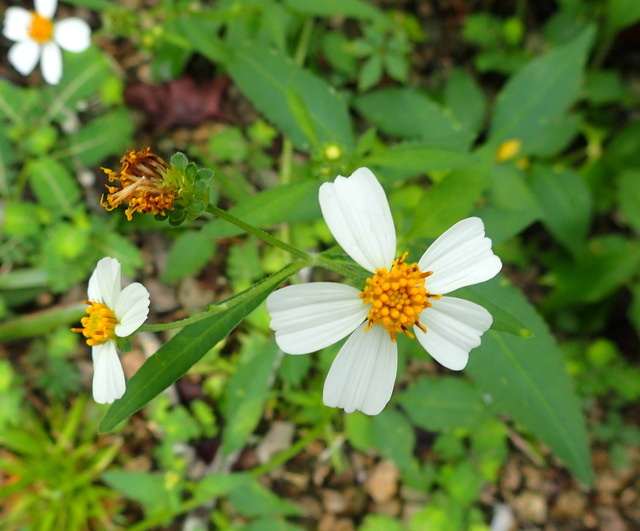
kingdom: Plantae
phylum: Tracheophyta
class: Magnoliopsida
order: Asterales
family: Asteraceae
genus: Bidens
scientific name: Bidens alba
